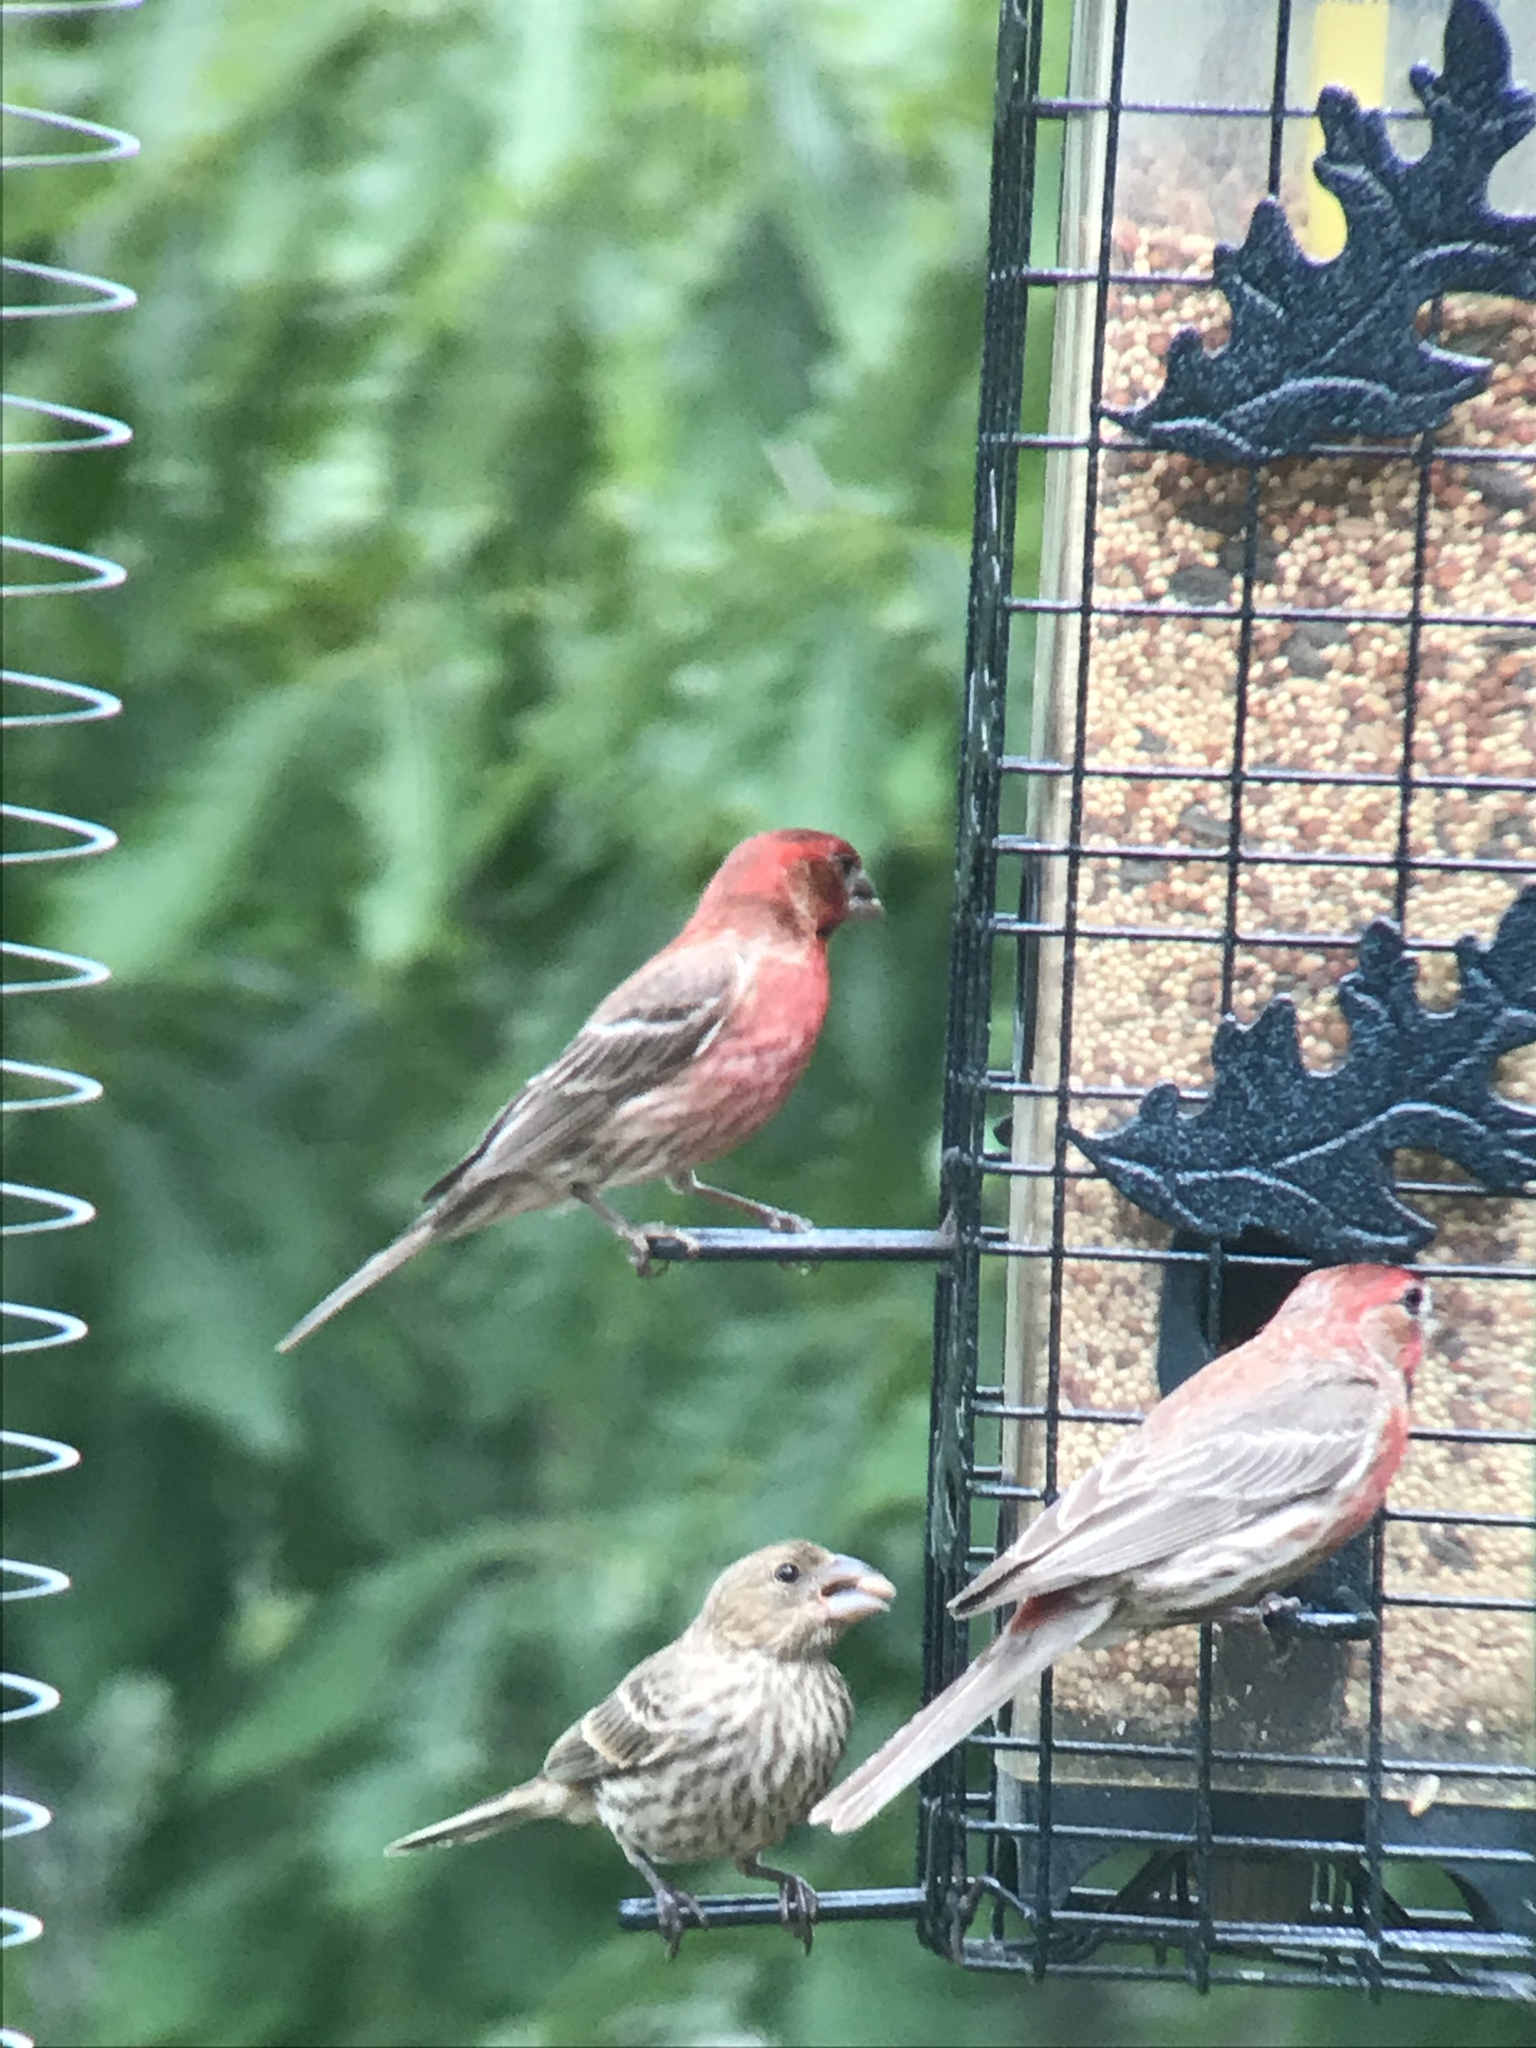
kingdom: Animalia
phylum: Chordata
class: Aves
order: Passeriformes
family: Fringillidae
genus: Haemorhous
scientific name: Haemorhous mexicanus
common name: House finch
